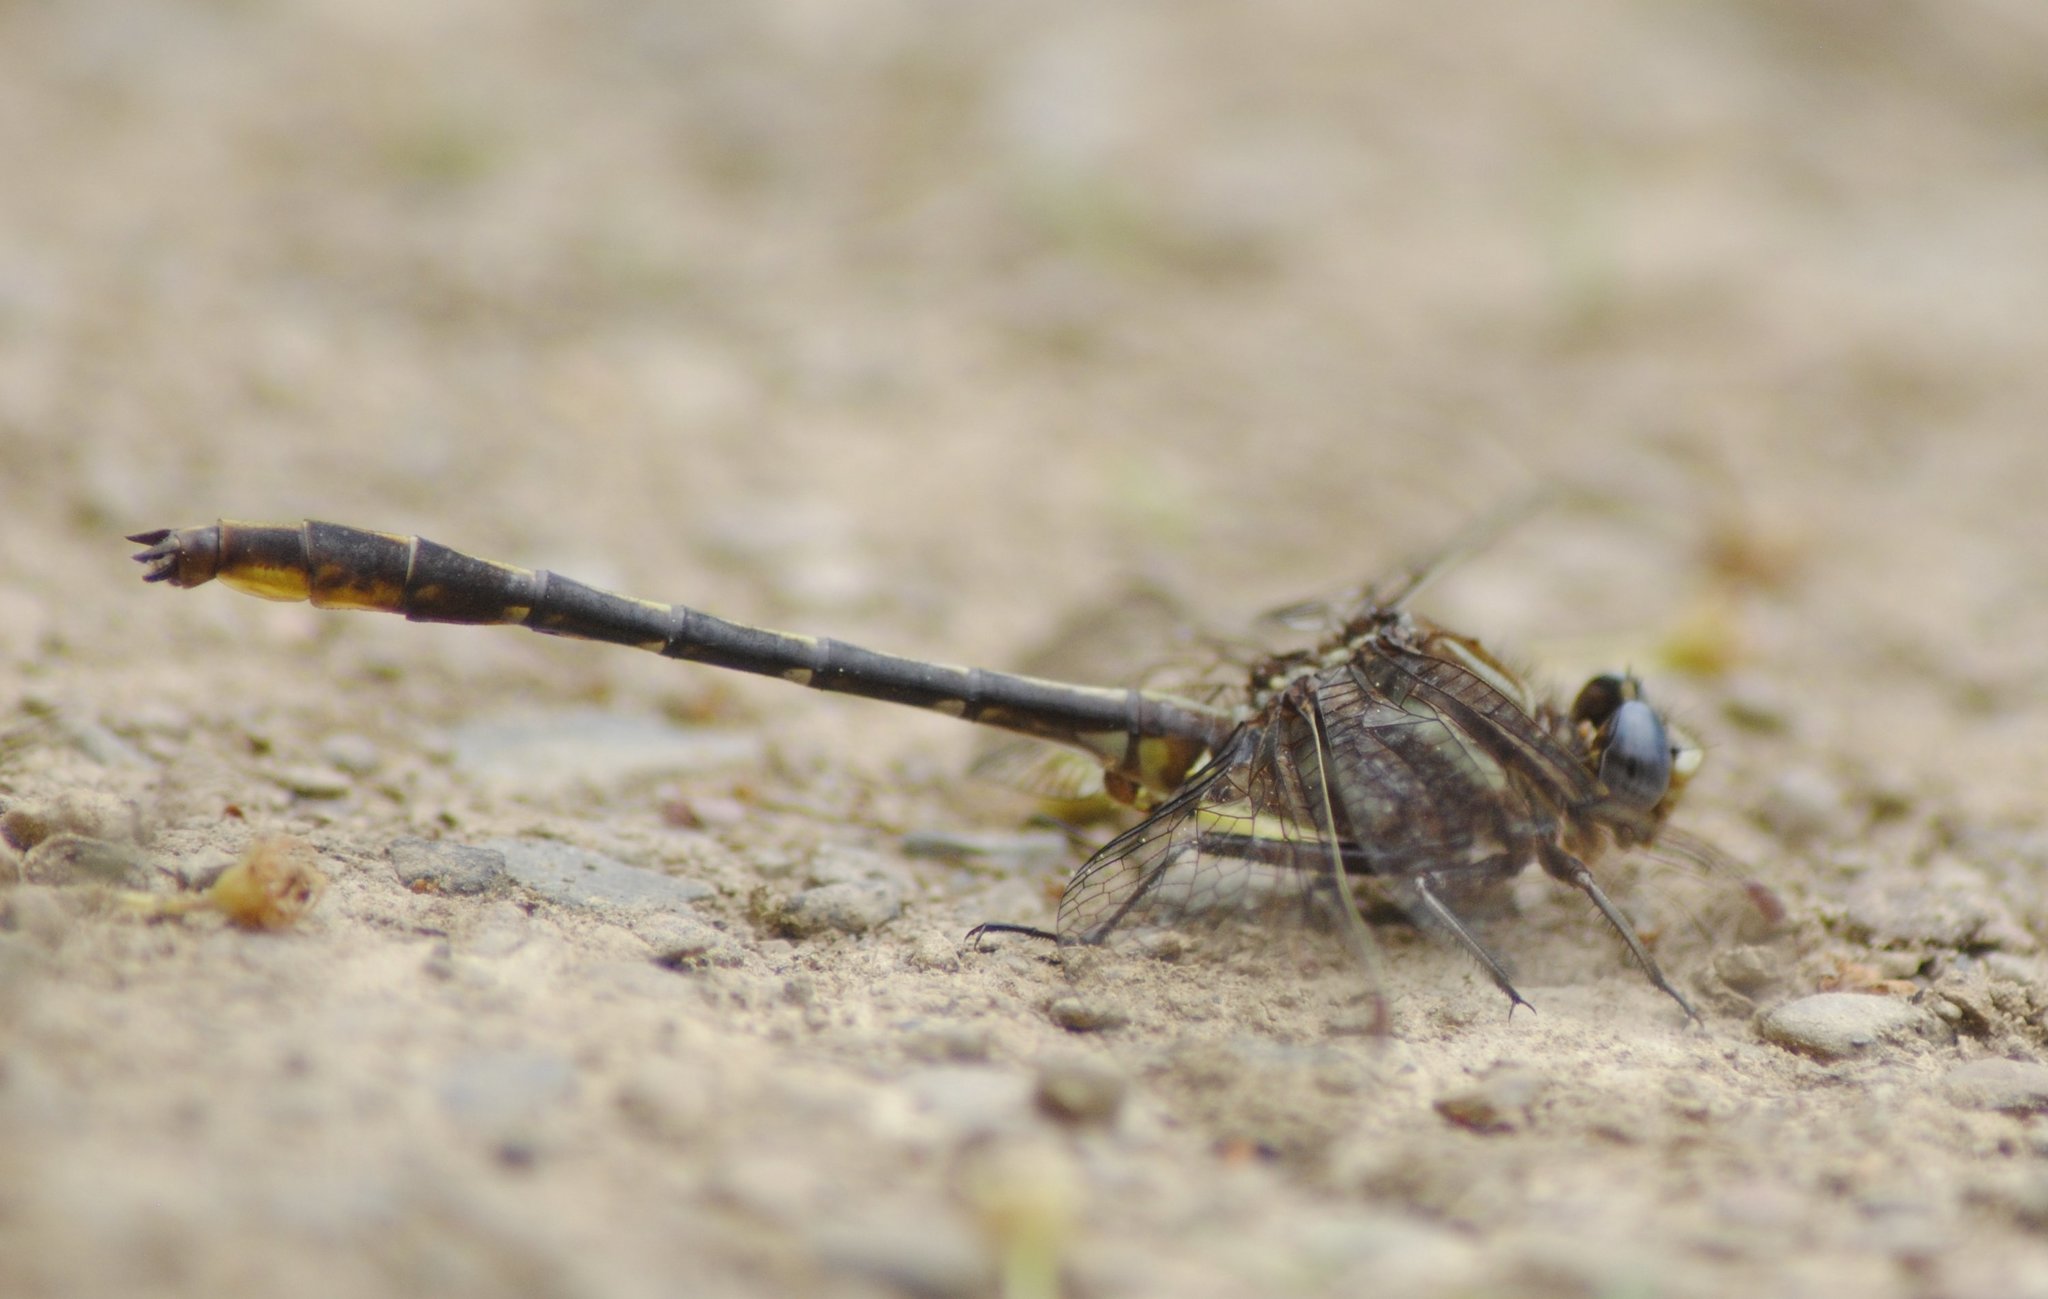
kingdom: Animalia
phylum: Arthropoda
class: Insecta
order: Odonata
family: Gomphidae
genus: Phanogomphus
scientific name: Phanogomphus exilis
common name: Lancet clubtail
